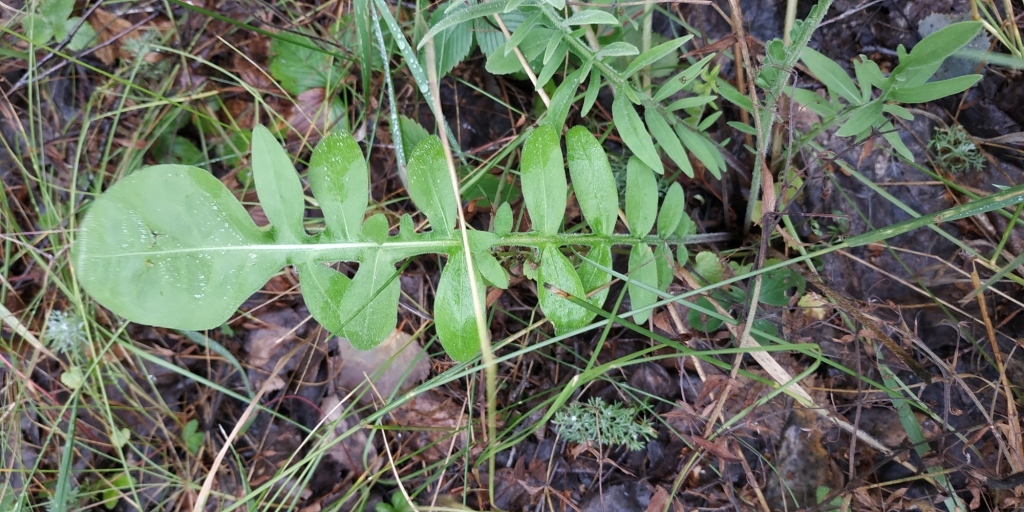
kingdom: Plantae
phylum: Tracheophyta
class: Magnoliopsida
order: Asterales
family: Asteraceae
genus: Centaurea
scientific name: Centaurea scabiosa
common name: Greater knapweed
